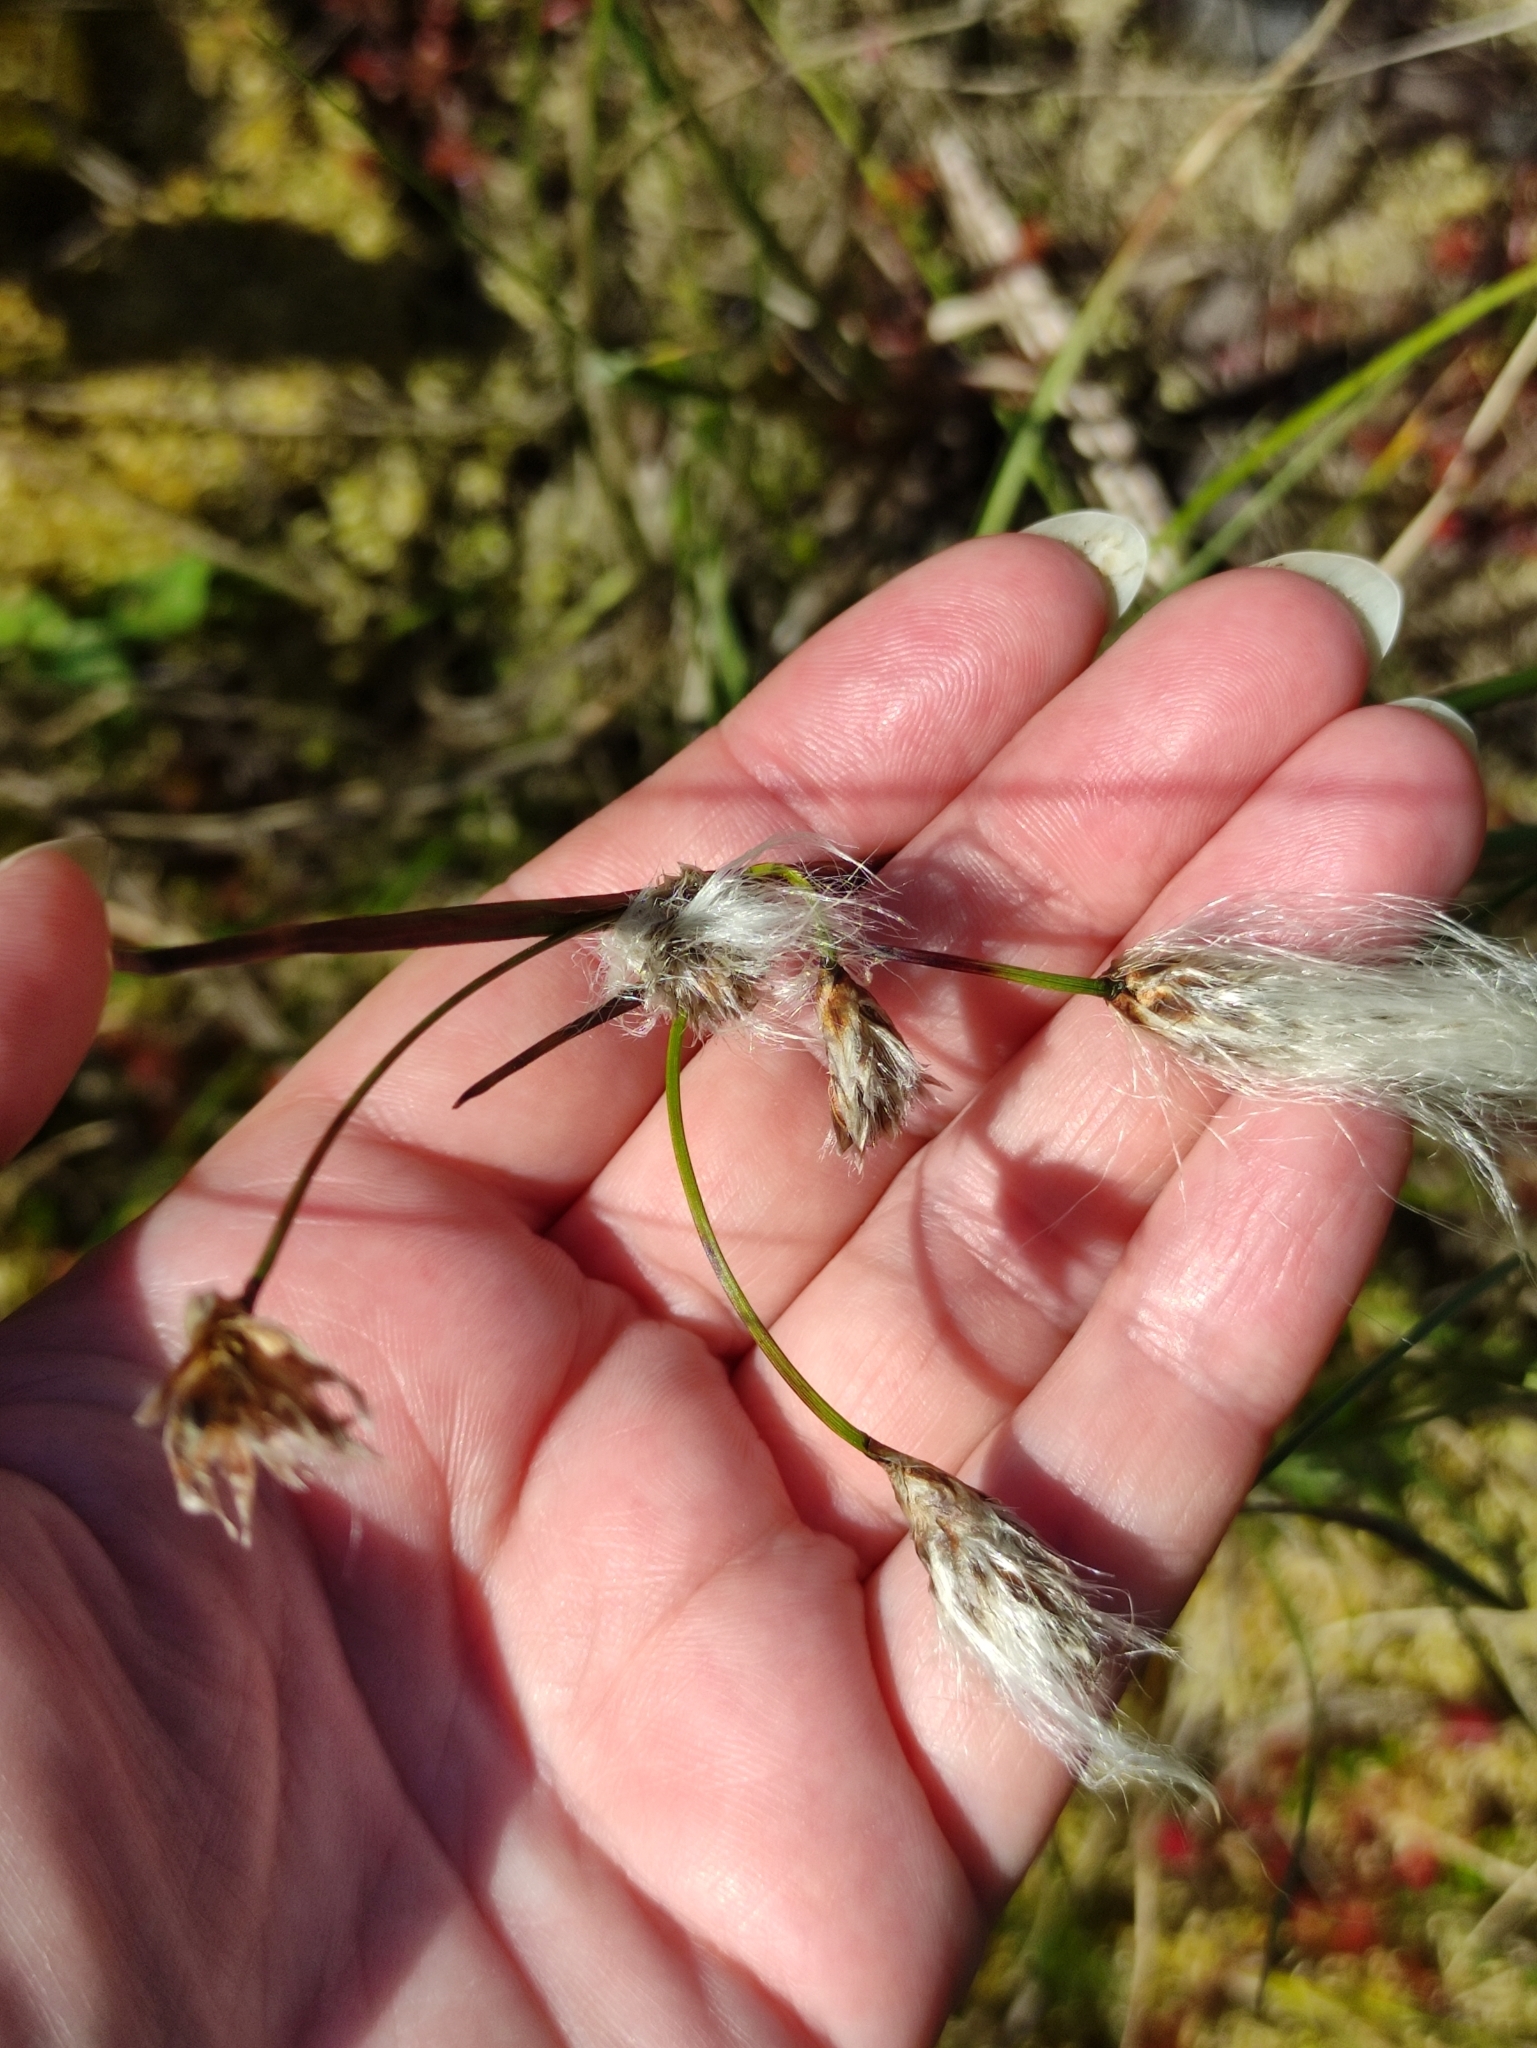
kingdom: Plantae
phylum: Tracheophyta
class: Liliopsida
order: Poales
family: Cyperaceae
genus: Eriophorum
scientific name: Eriophorum angustifolium
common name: Common cottongrass
